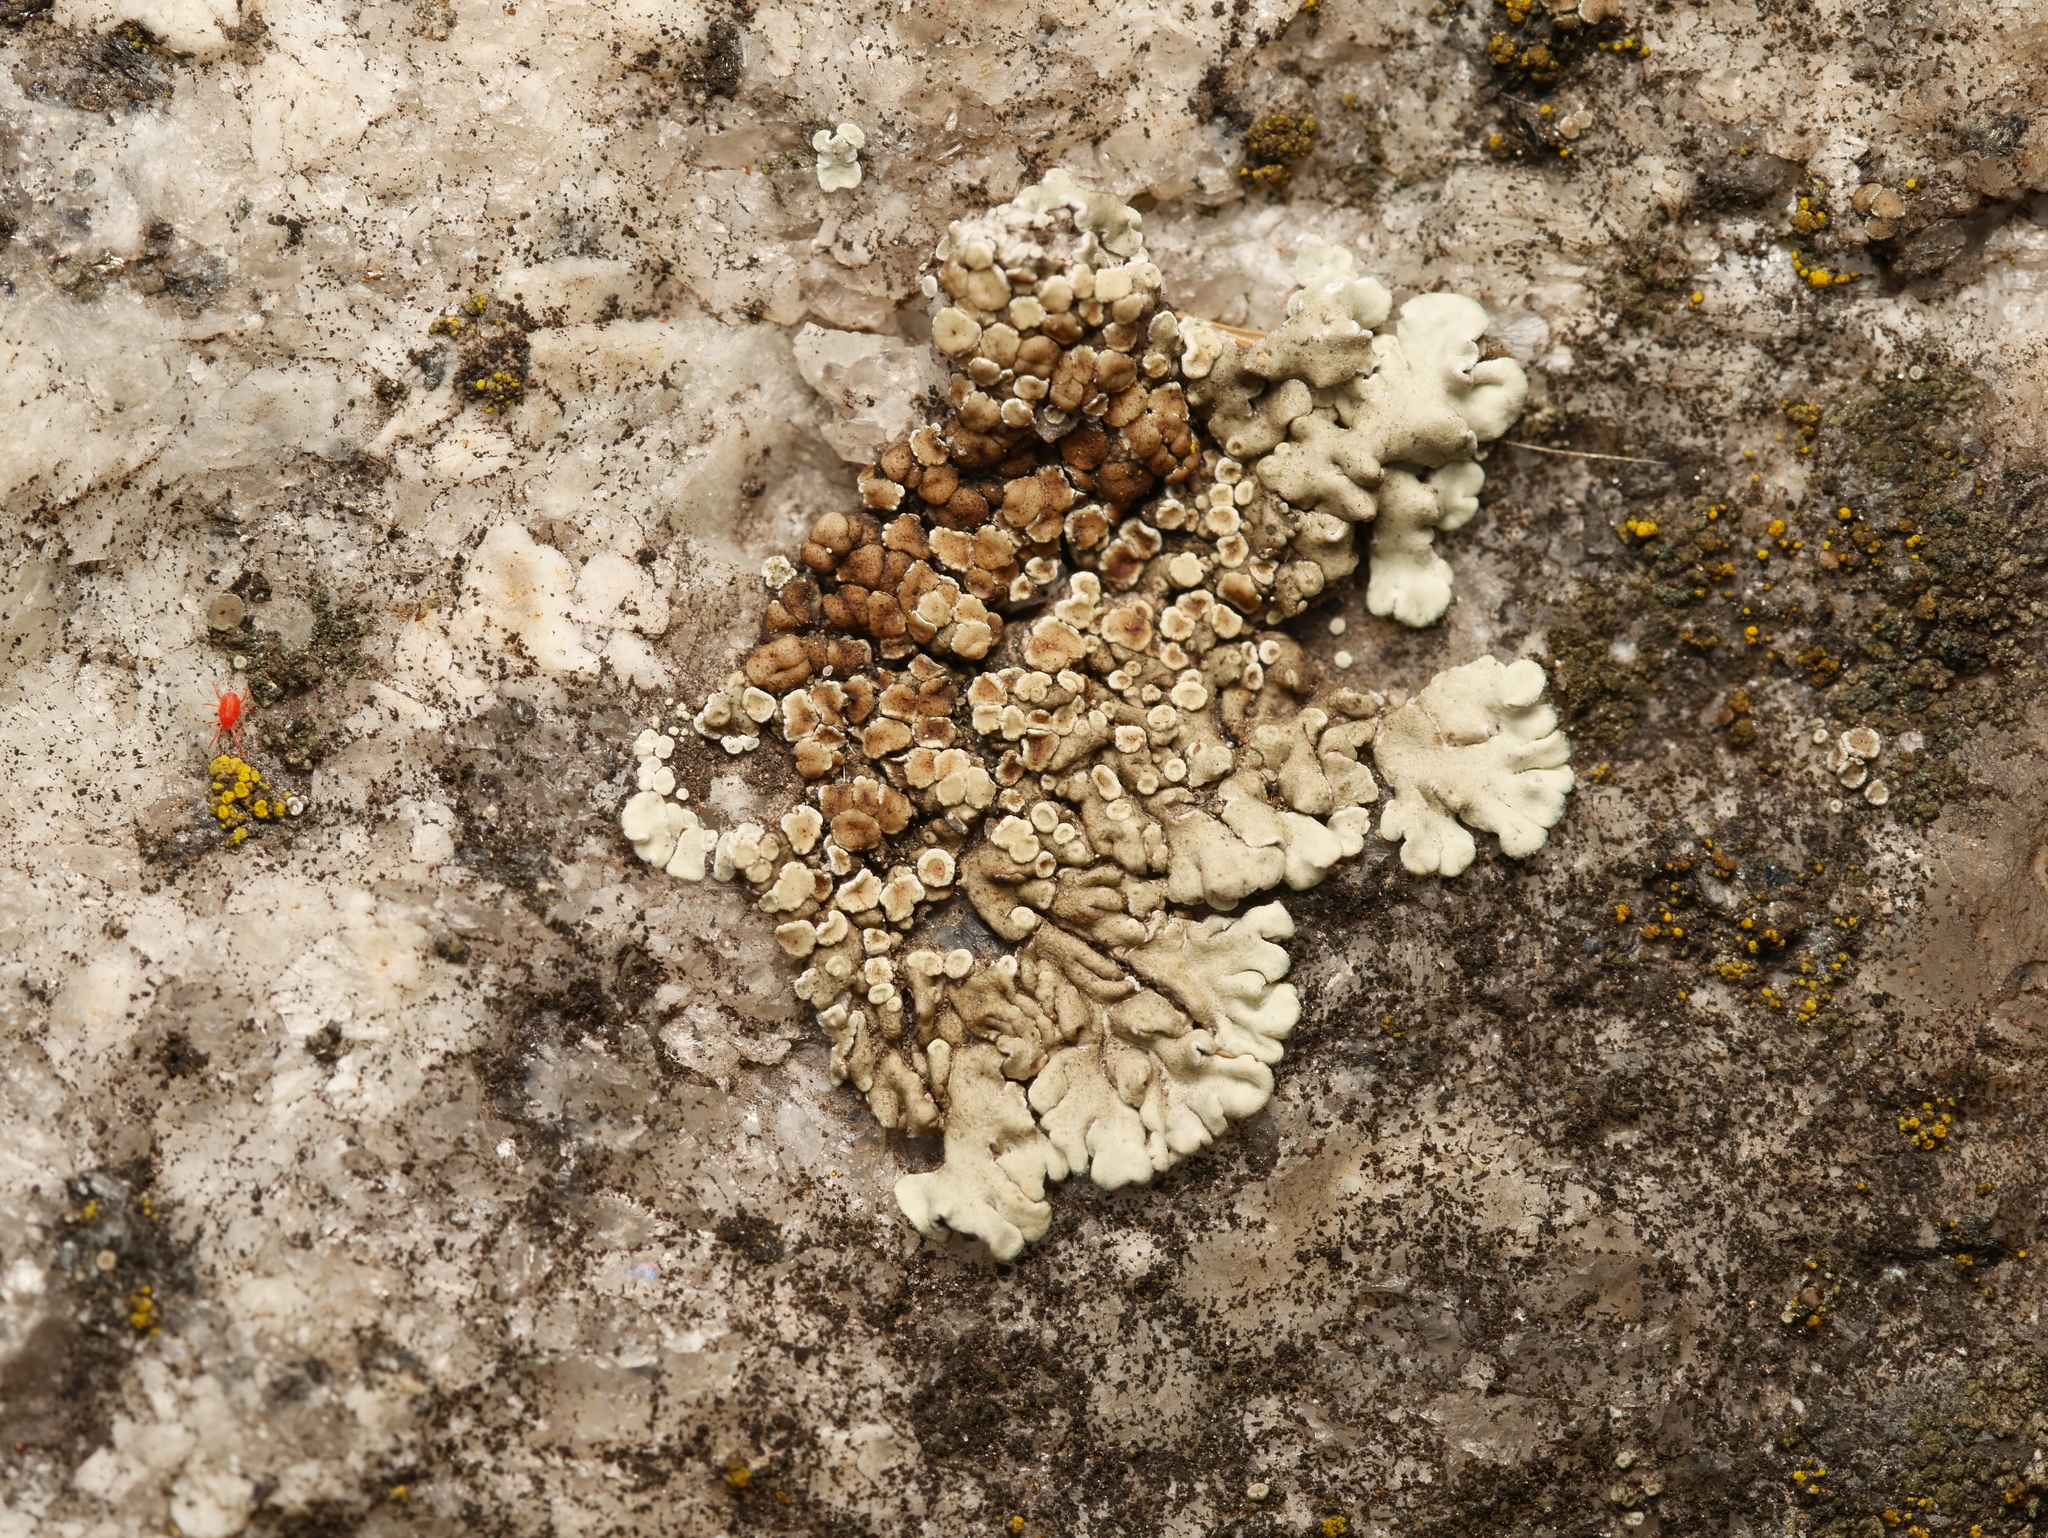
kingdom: Fungi
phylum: Ascomycota
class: Lecanoromycetes
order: Lecanorales
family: Lecanoraceae
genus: Protoparmeliopsis
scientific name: Protoparmeliopsis muralis
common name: Stonewall rim lichen
